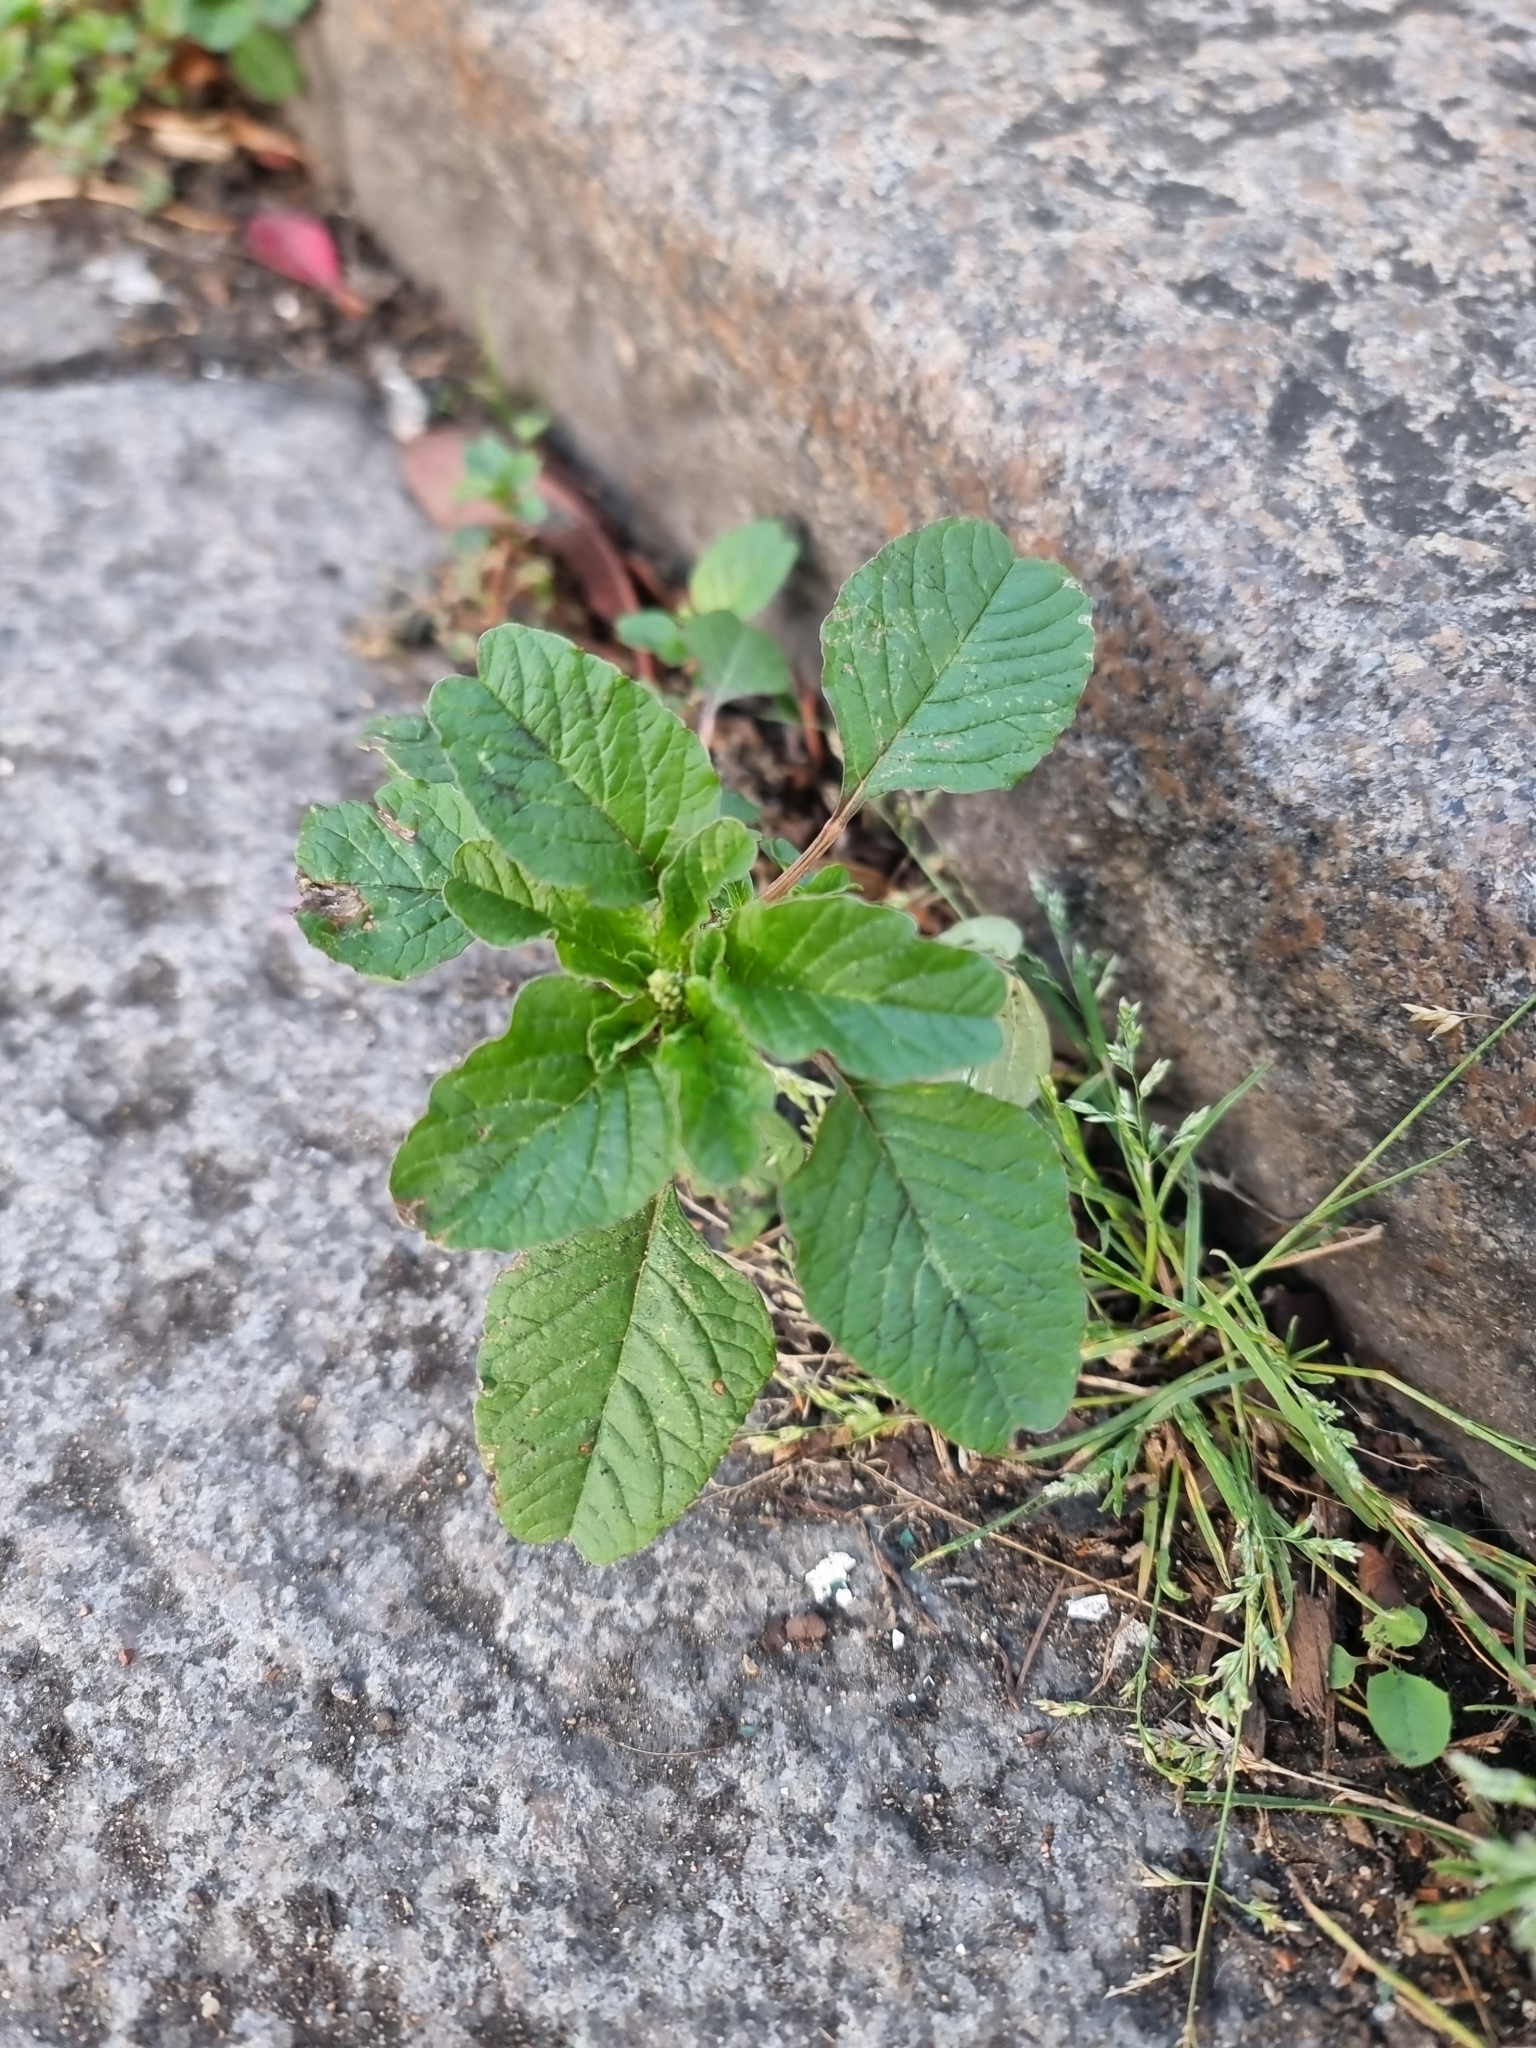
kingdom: Plantae
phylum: Tracheophyta
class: Magnoliopsida
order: Caryophyllales
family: Amaranthaceae
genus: Amaranthus
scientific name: Amaranthus blitum
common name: Purple amaranth
